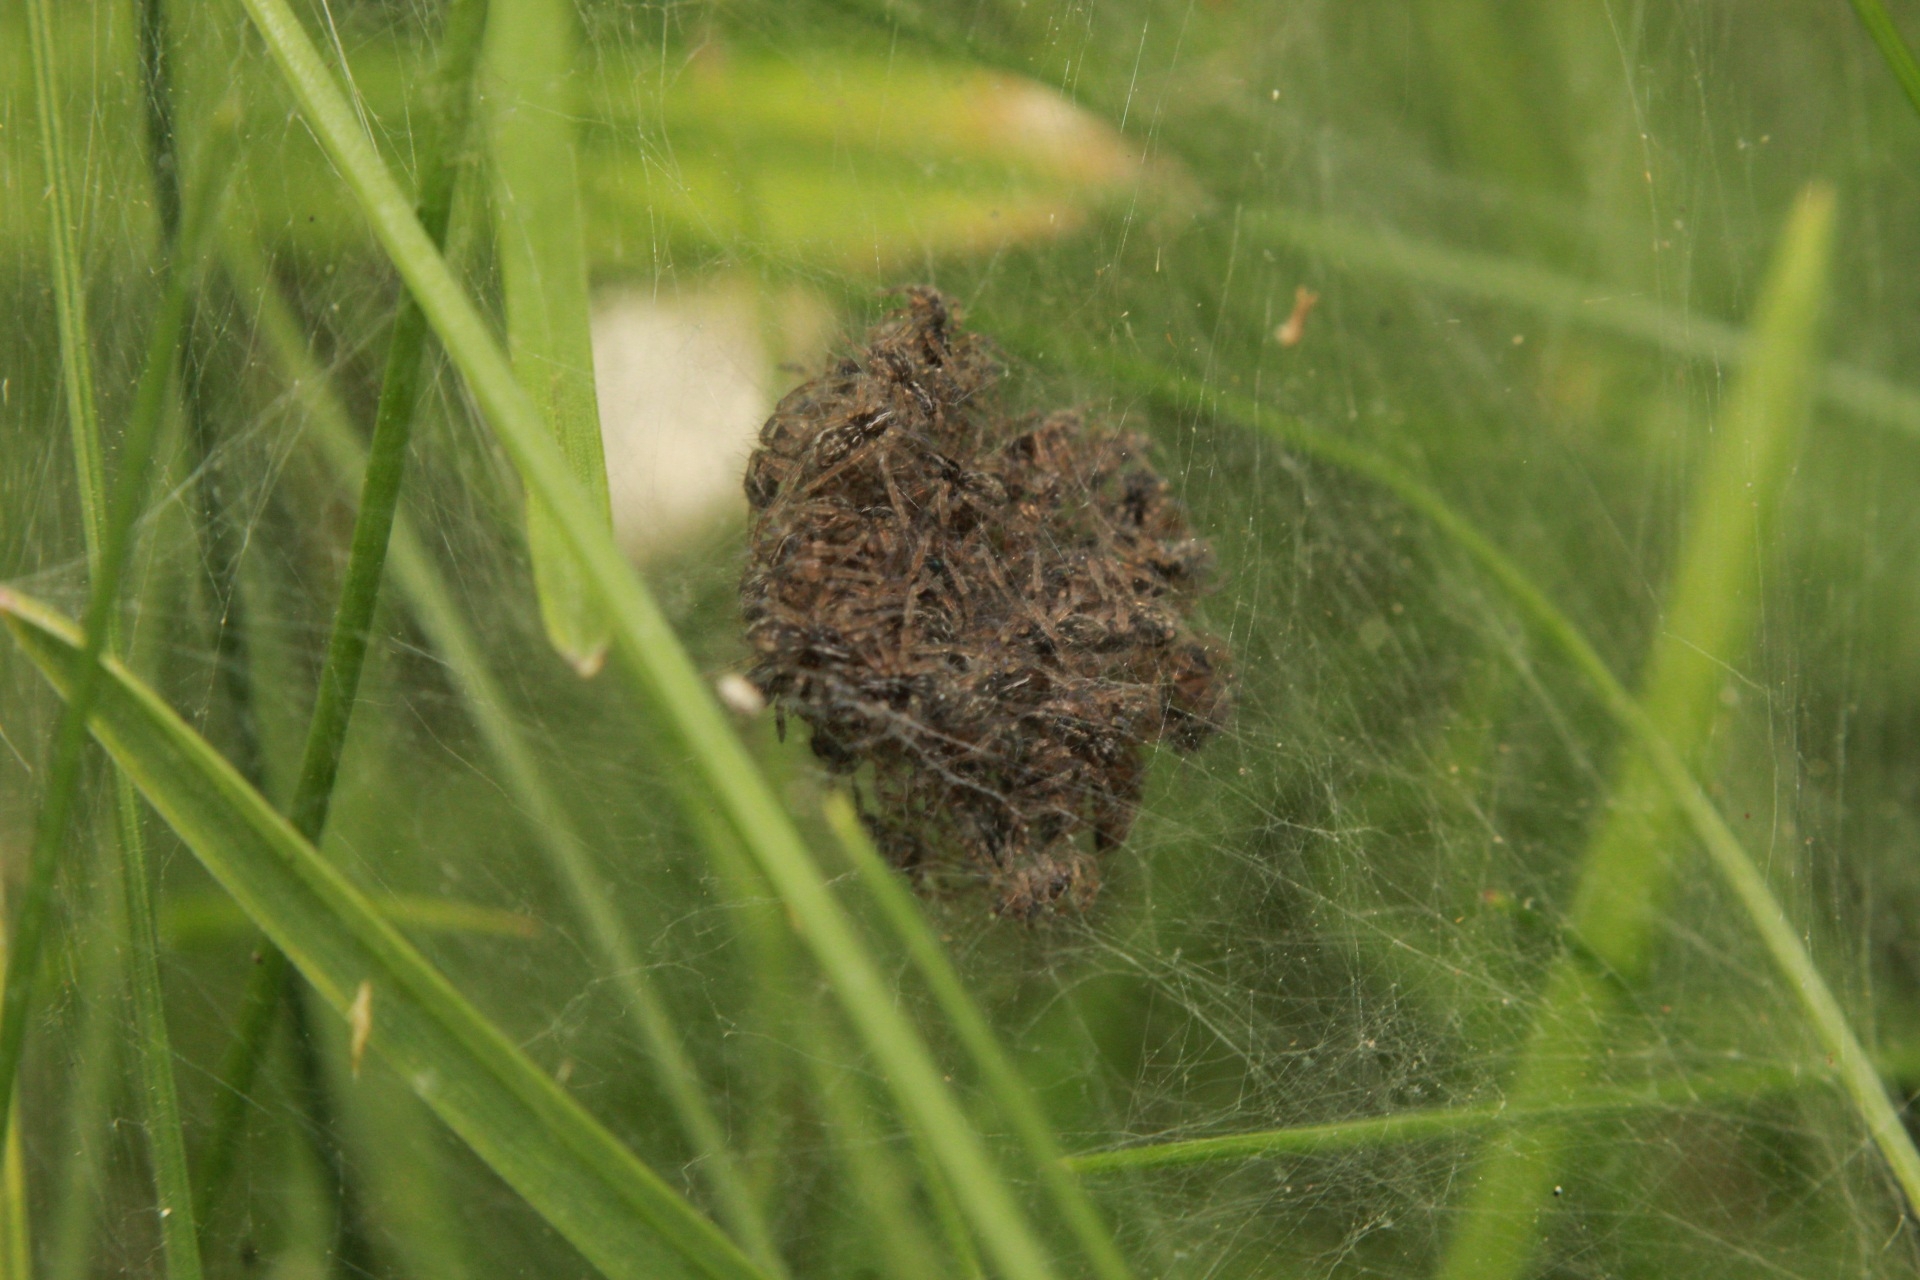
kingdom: Animalia
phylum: Arthropoda
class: Arachnida
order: Araneae
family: Pisauridae
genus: Pisaura
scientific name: Pisaura mirabilis
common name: Tent spider
